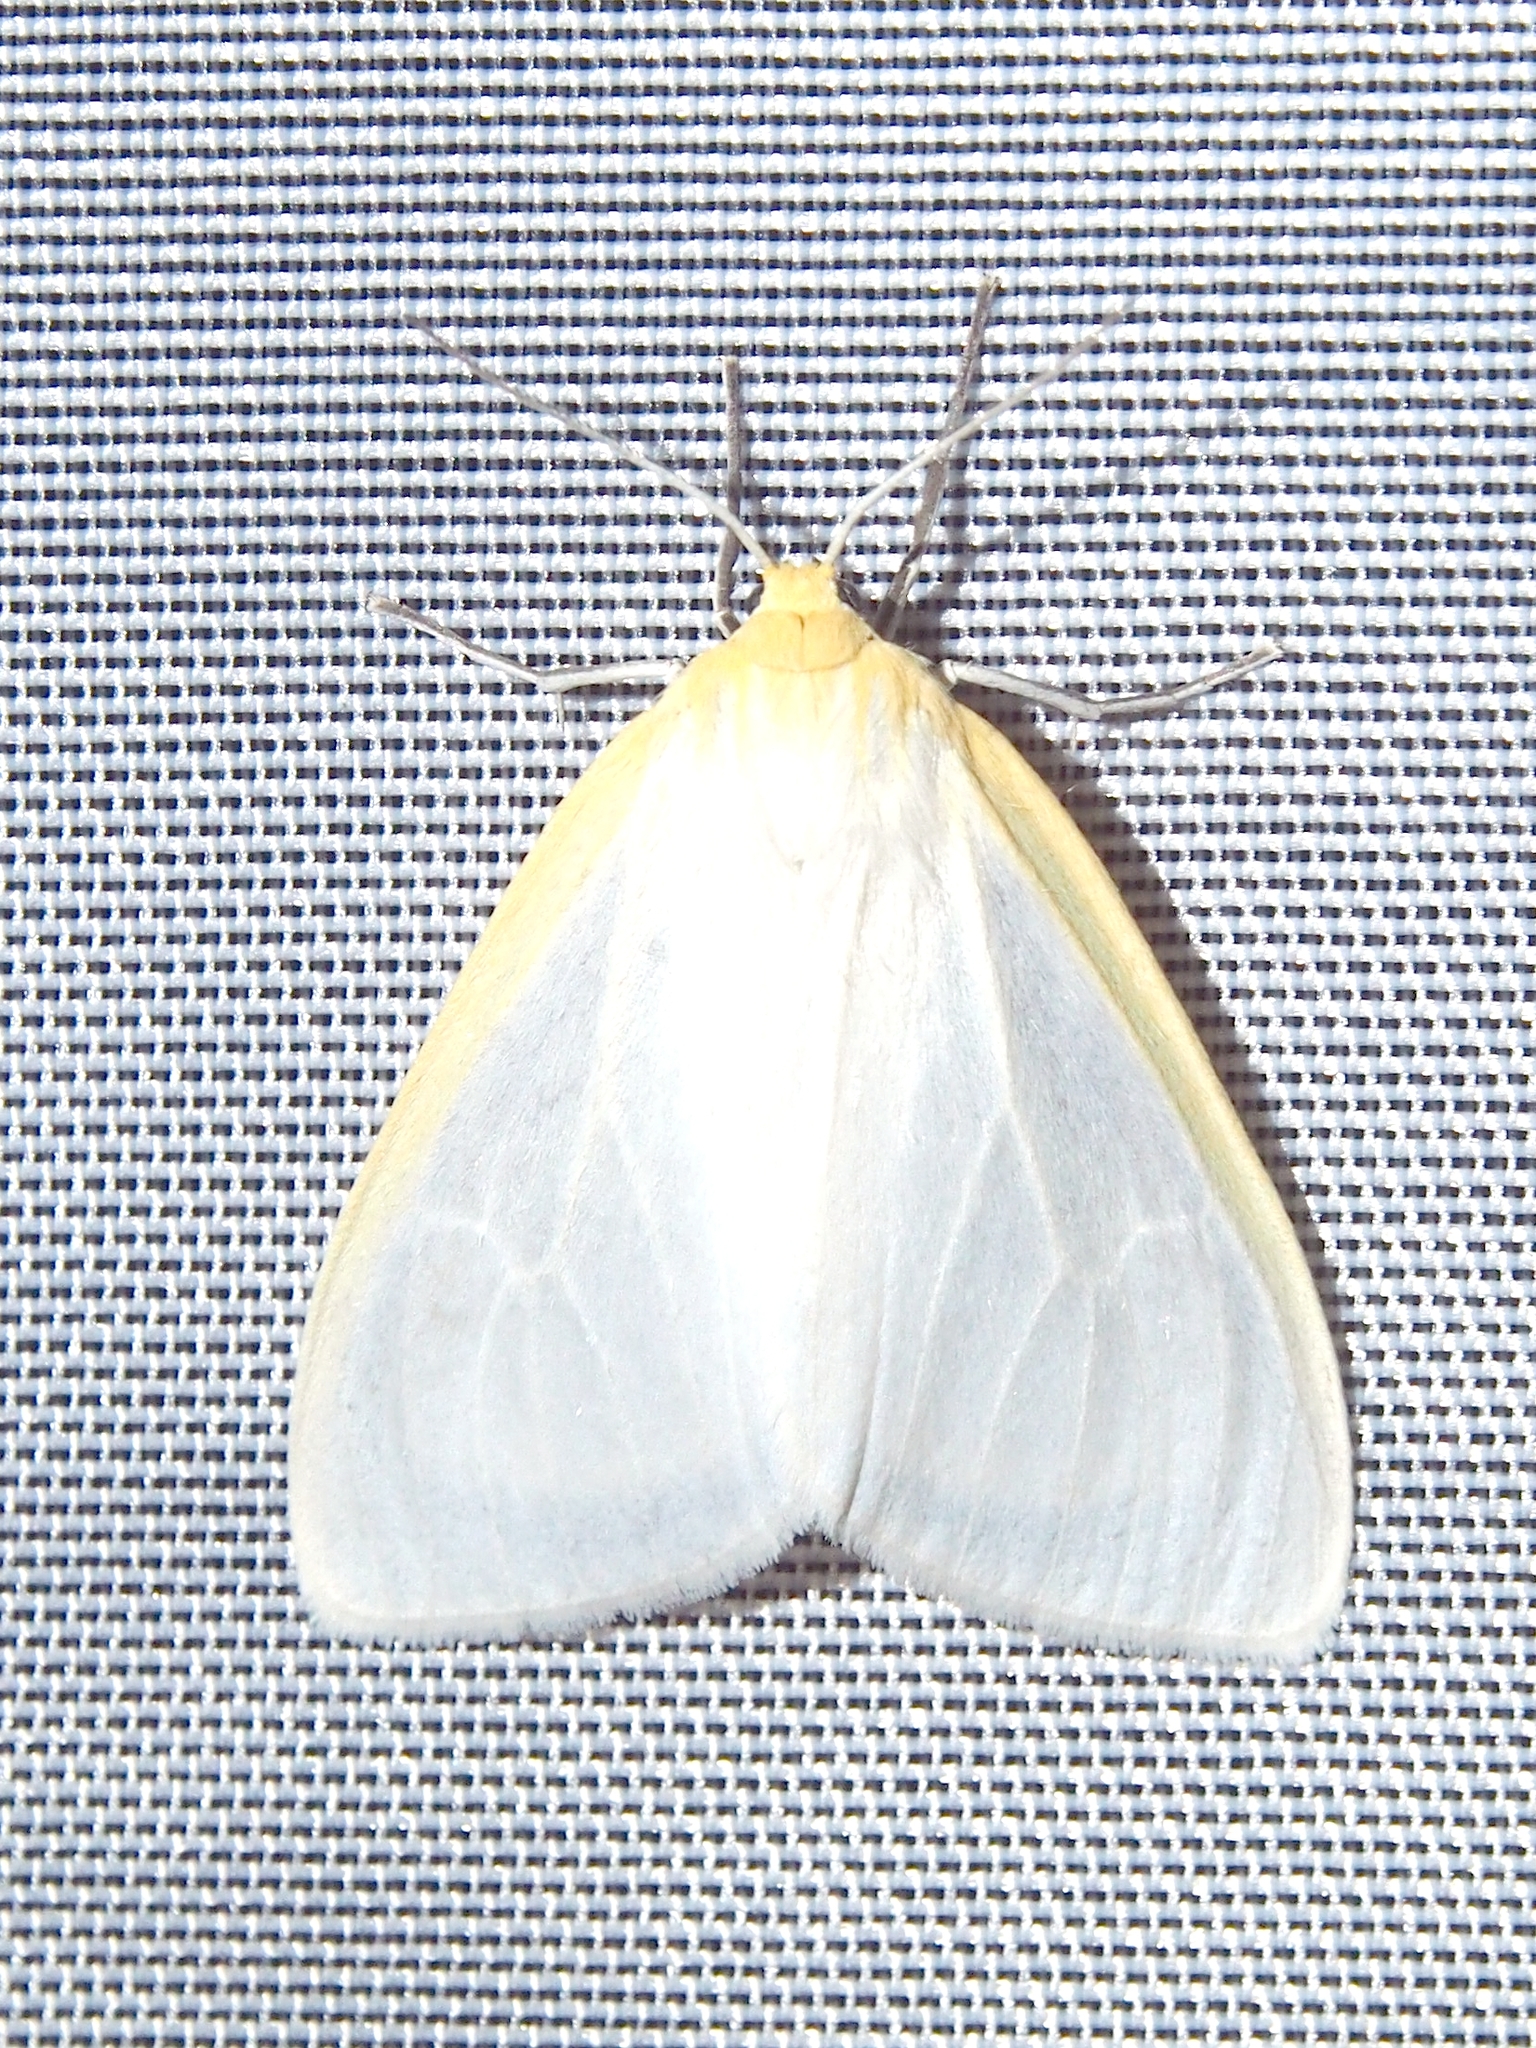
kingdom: Animalia
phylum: Arthropoda
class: Insecta
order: Lepidoptera
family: Erebidae
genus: Cycnia
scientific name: Cycnia tenera
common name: Delicate cycnia moth
